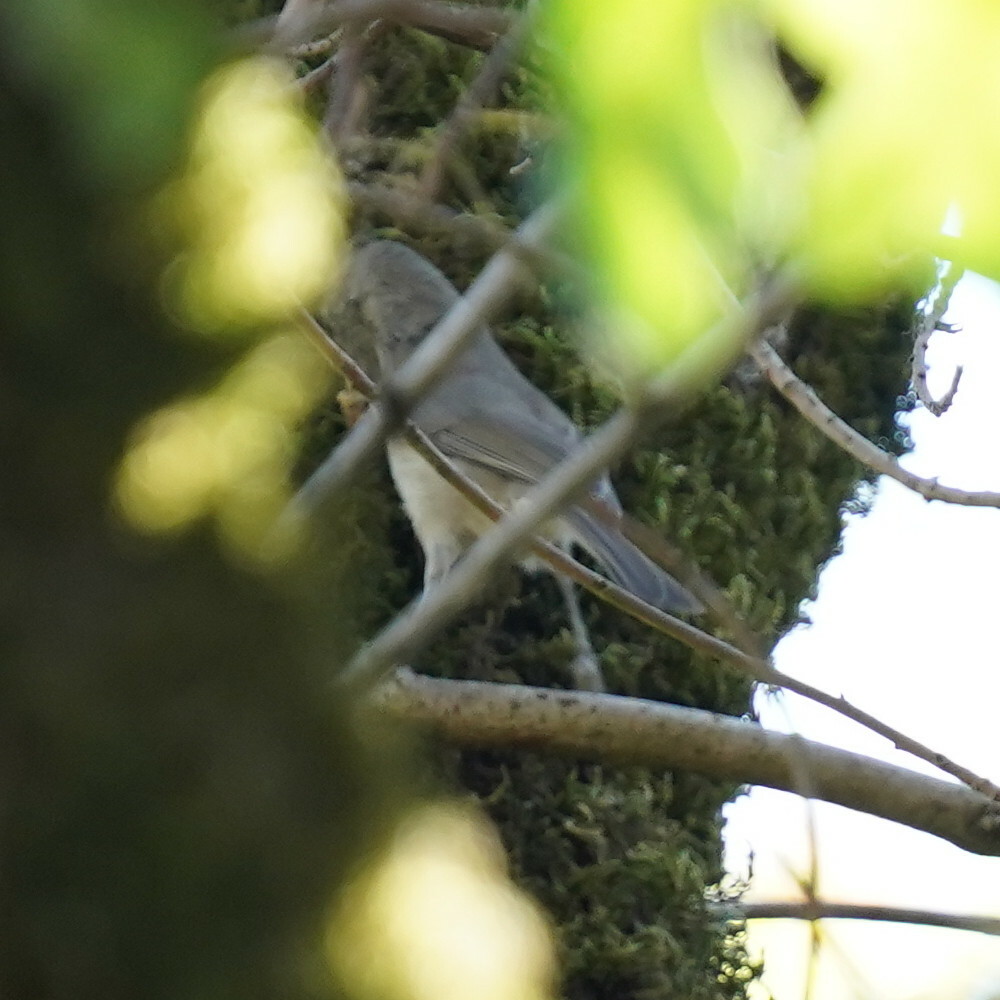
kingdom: Animalia
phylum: Chordata
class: Aves
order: Passeriformes
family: Paridae
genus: Baeolophus
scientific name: Baeolophus inornatus
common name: Oak titmouse
